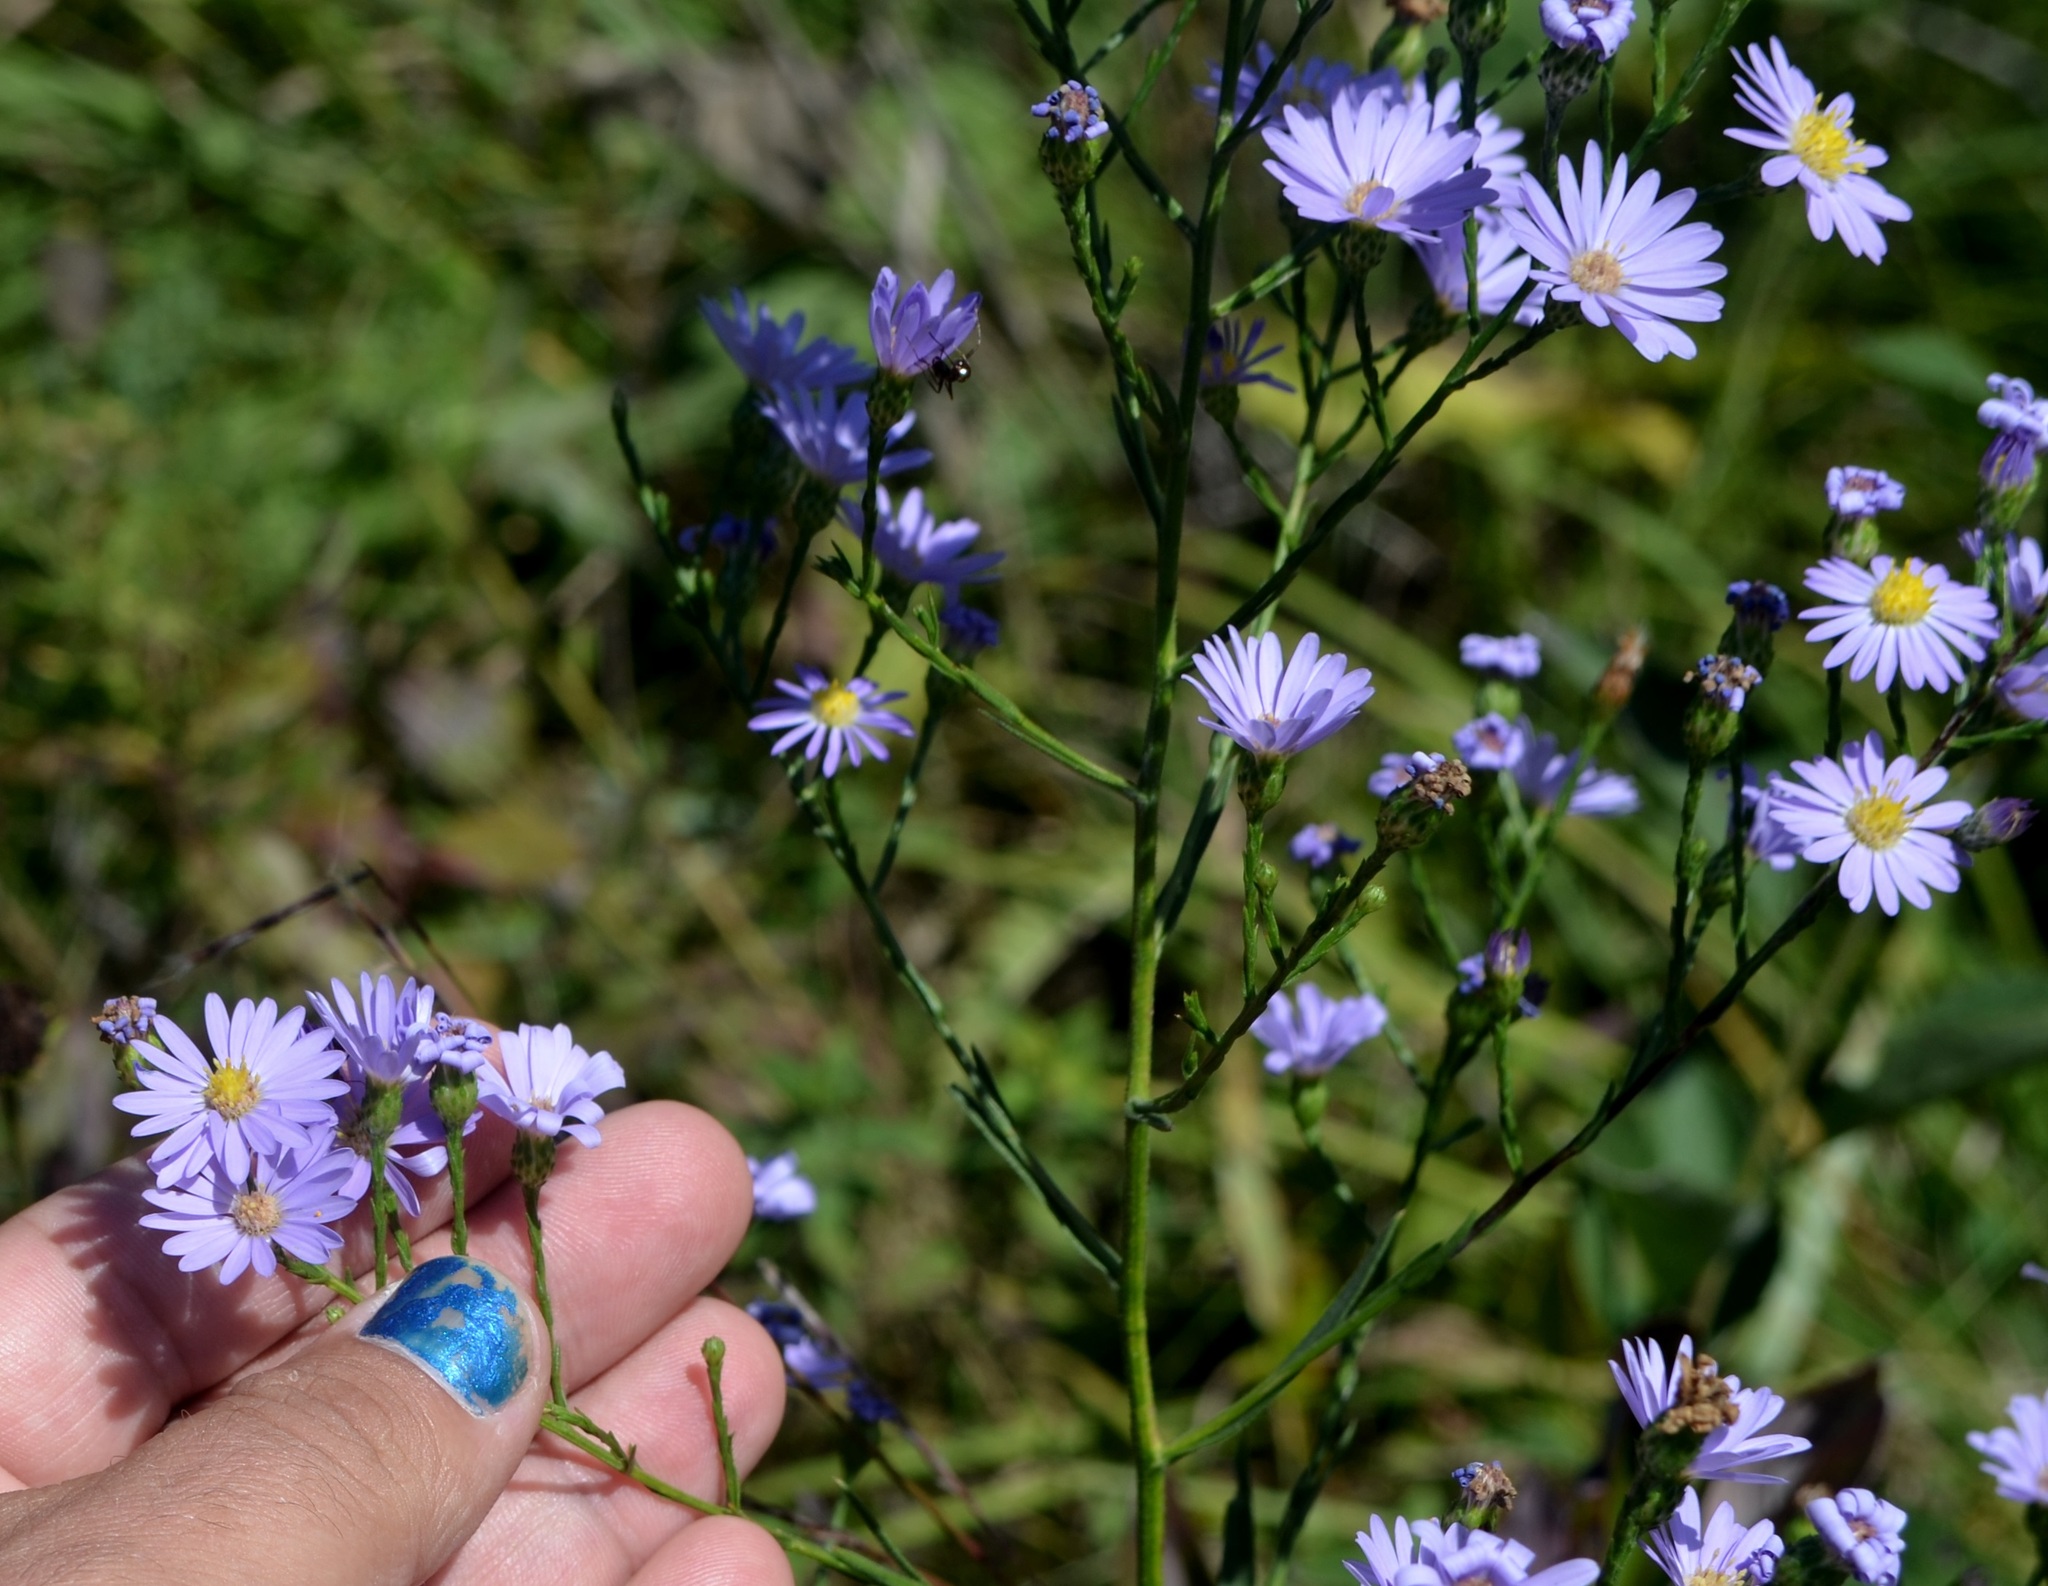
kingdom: Plantae
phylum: Tracheophyta
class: Magnoliopsida
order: Asterales
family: Asteraceae
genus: Symphyotrichum
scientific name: Symphyotrichum oolentangiense
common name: Azure aster
